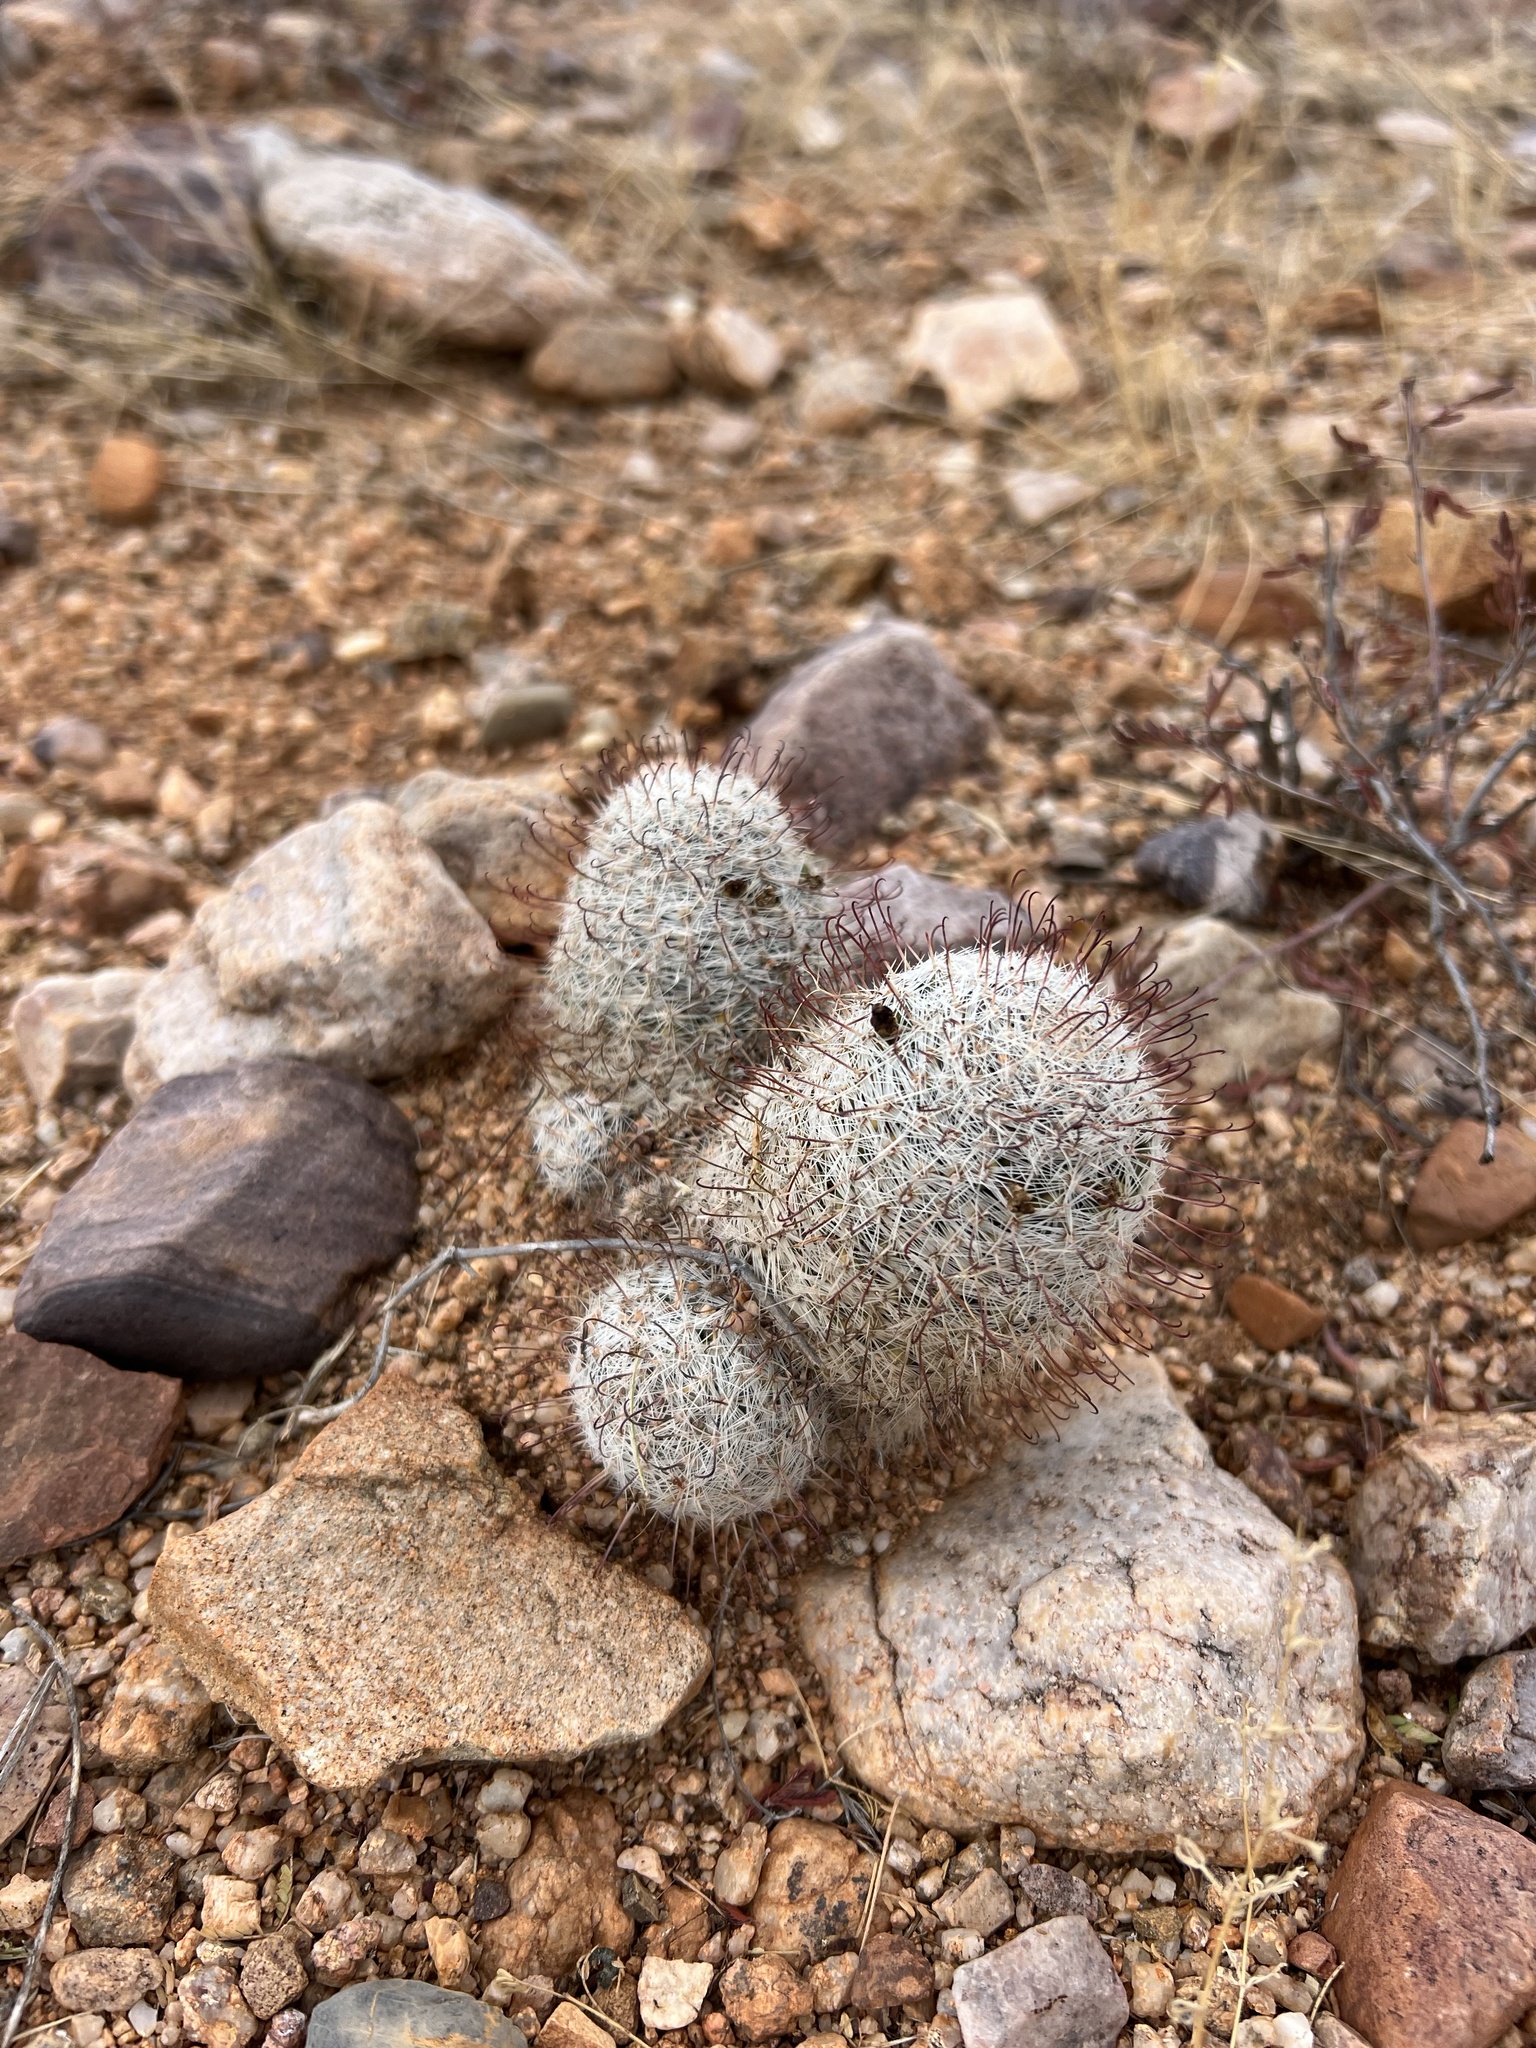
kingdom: Plantae
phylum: Tracheophyta
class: Magnoliopsida
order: Caryophyllales
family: Cactaceae
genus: Cochemiea
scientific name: Cochemiea grahamii
